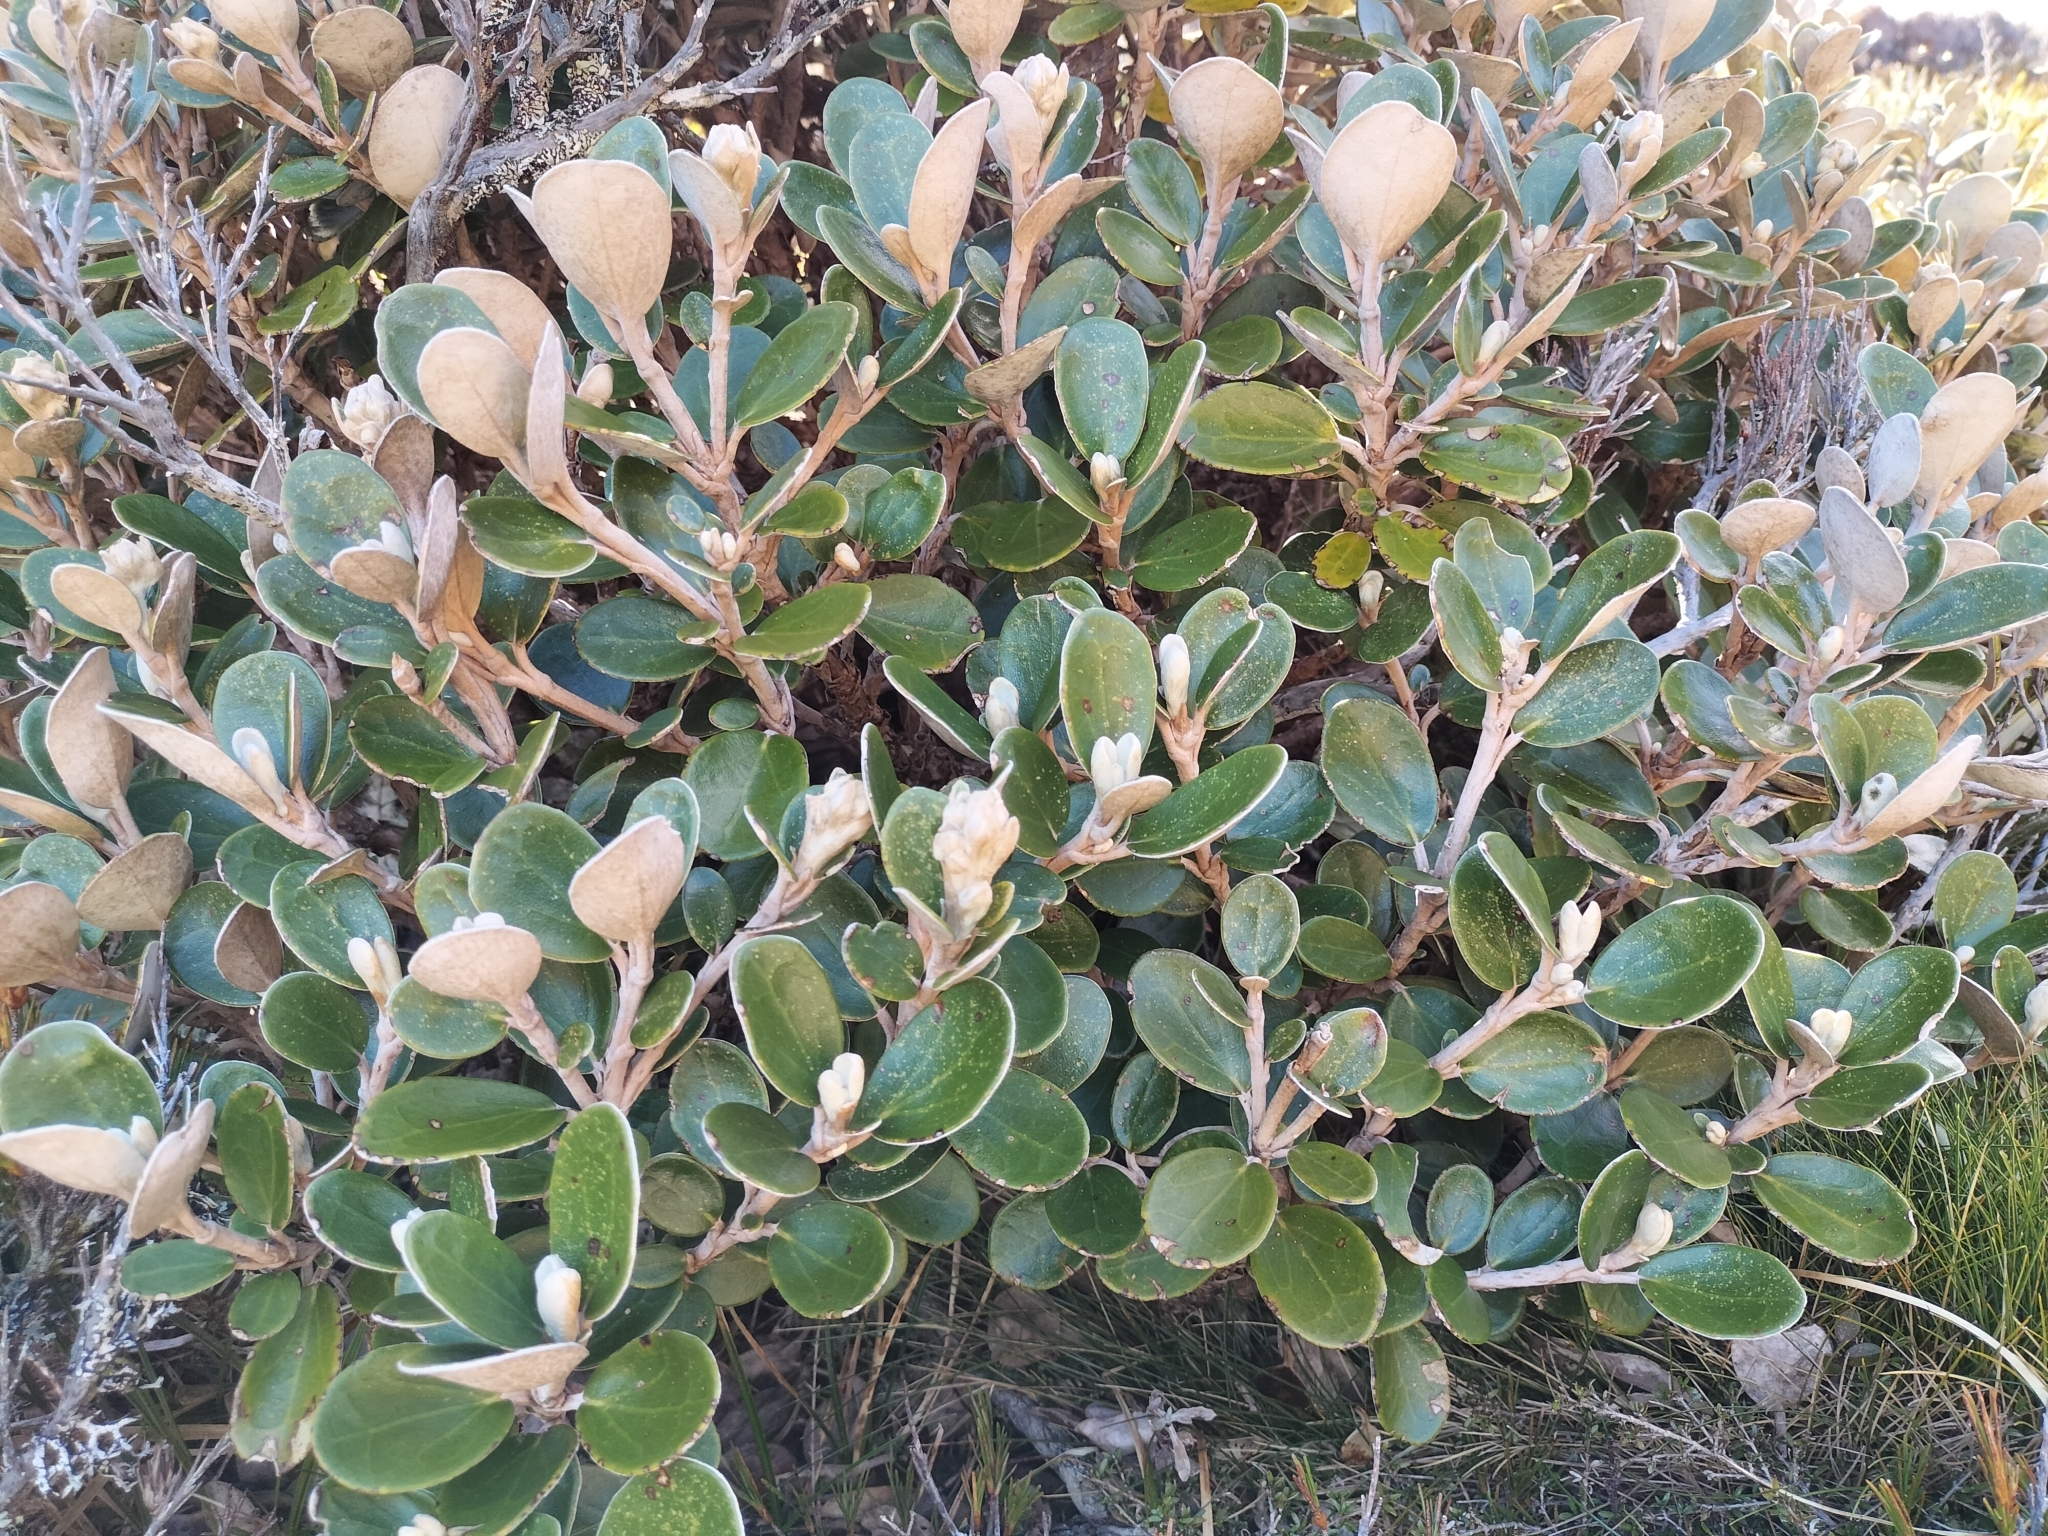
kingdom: Plantae
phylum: Tracheophyta
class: Magnoliopsida
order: Asterales
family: Asteraceae
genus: Brachyglottis
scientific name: Brachyglottis bidwillii
